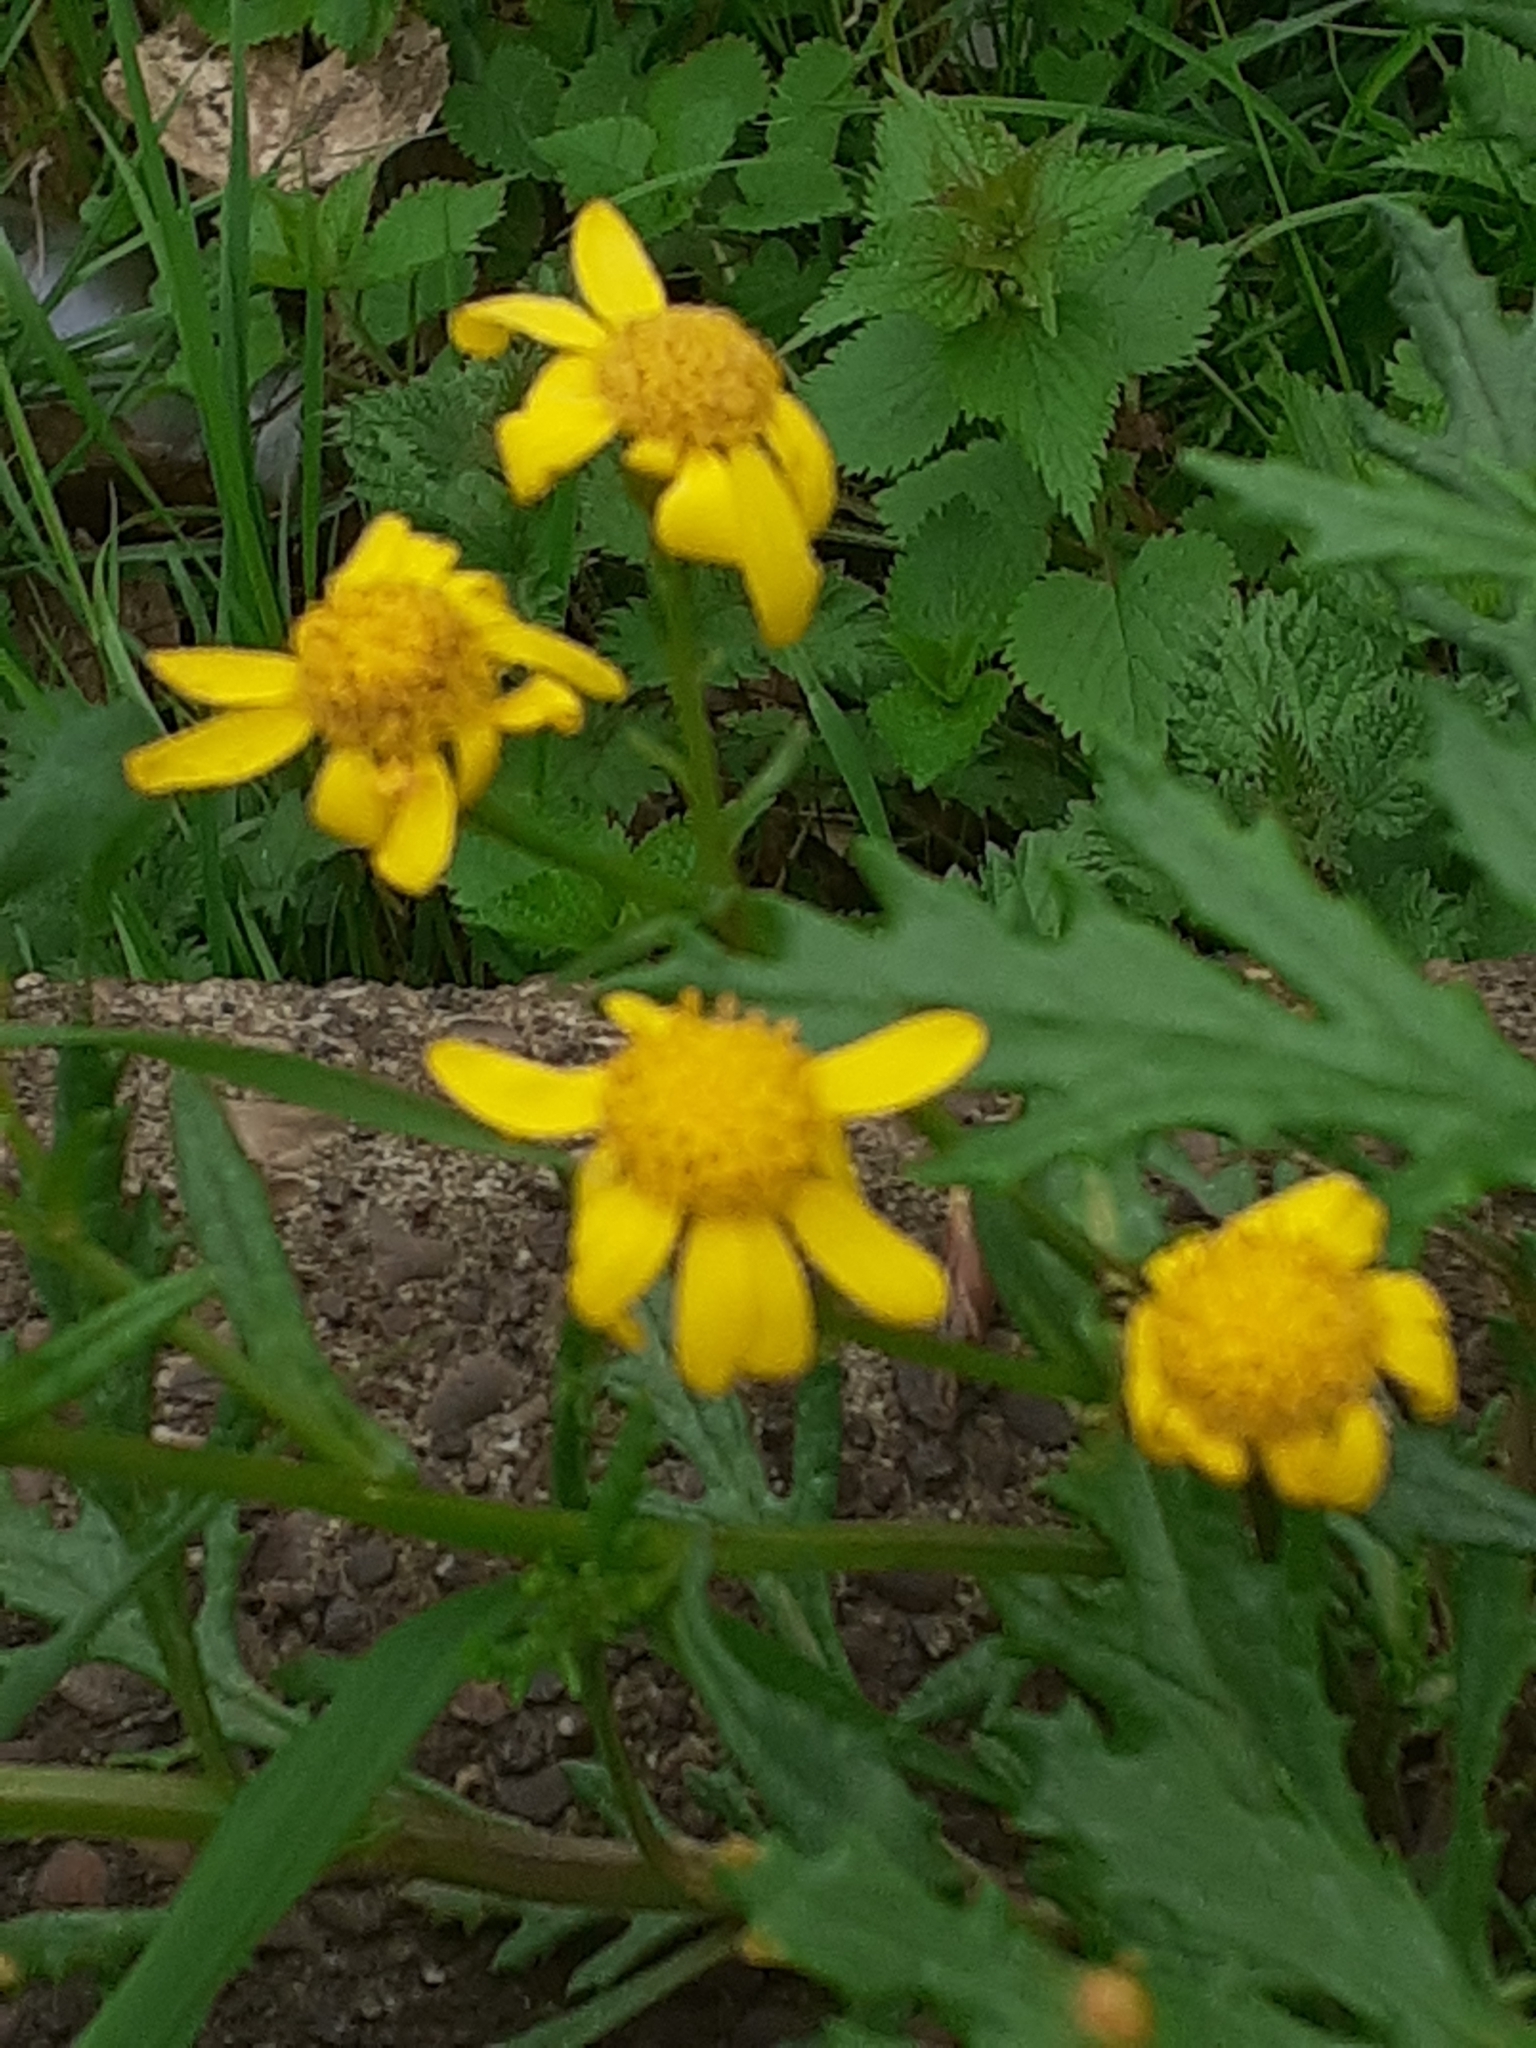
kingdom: Plantae
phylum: Tracheophyta
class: Magnoliopsida
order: Asterales
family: Asteraceae
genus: Senecio
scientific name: Senecio squalidus
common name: Oxford ragwort
